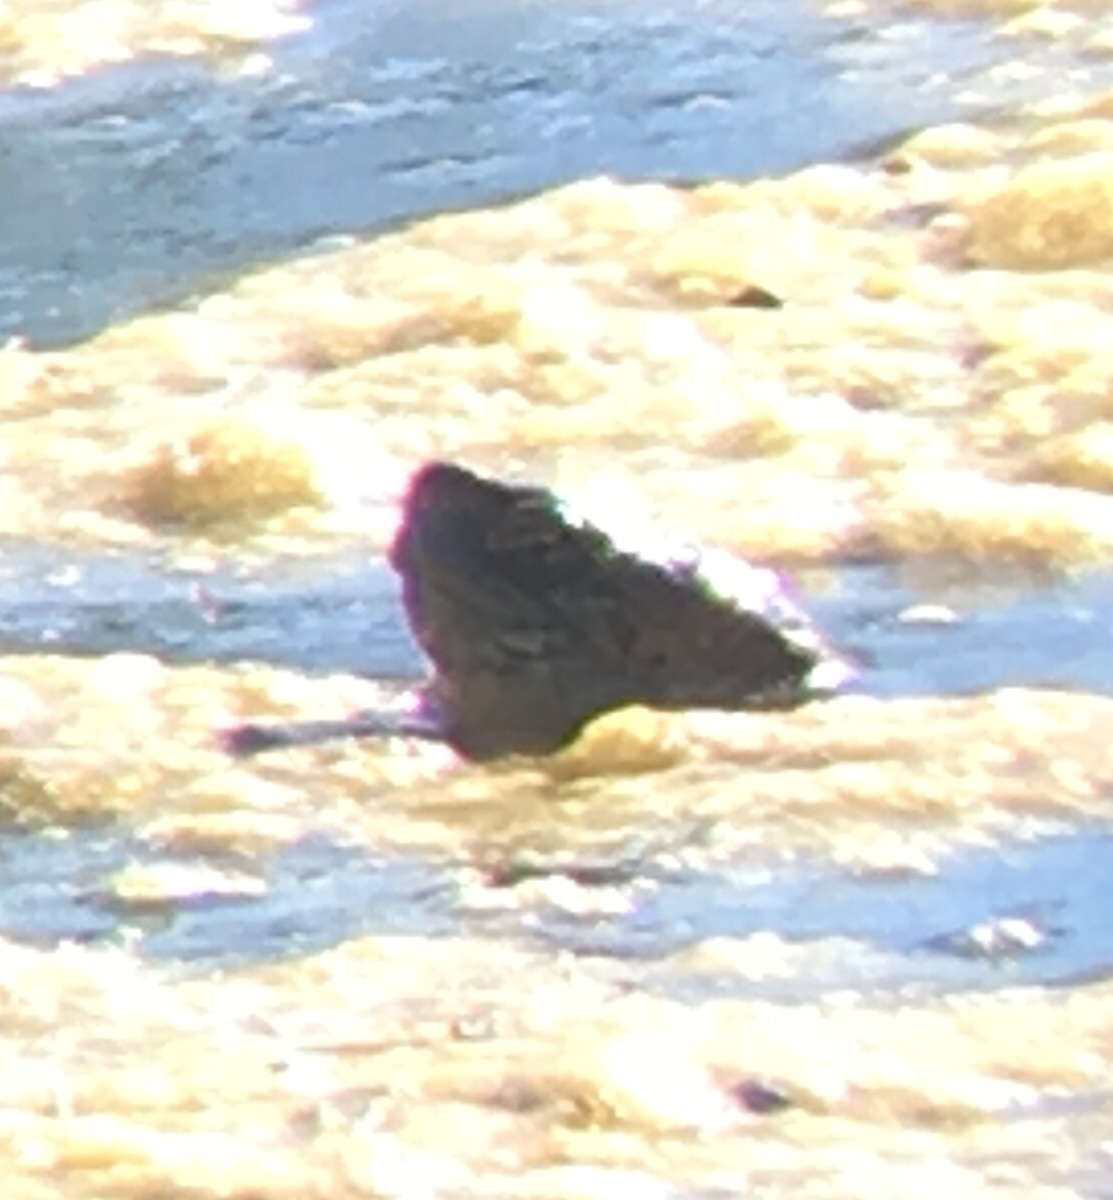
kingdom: Animalia
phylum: Chordata
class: Testudines
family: Emydidae
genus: Actinemys
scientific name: Actinemys marmorata
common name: Western pond turtle
